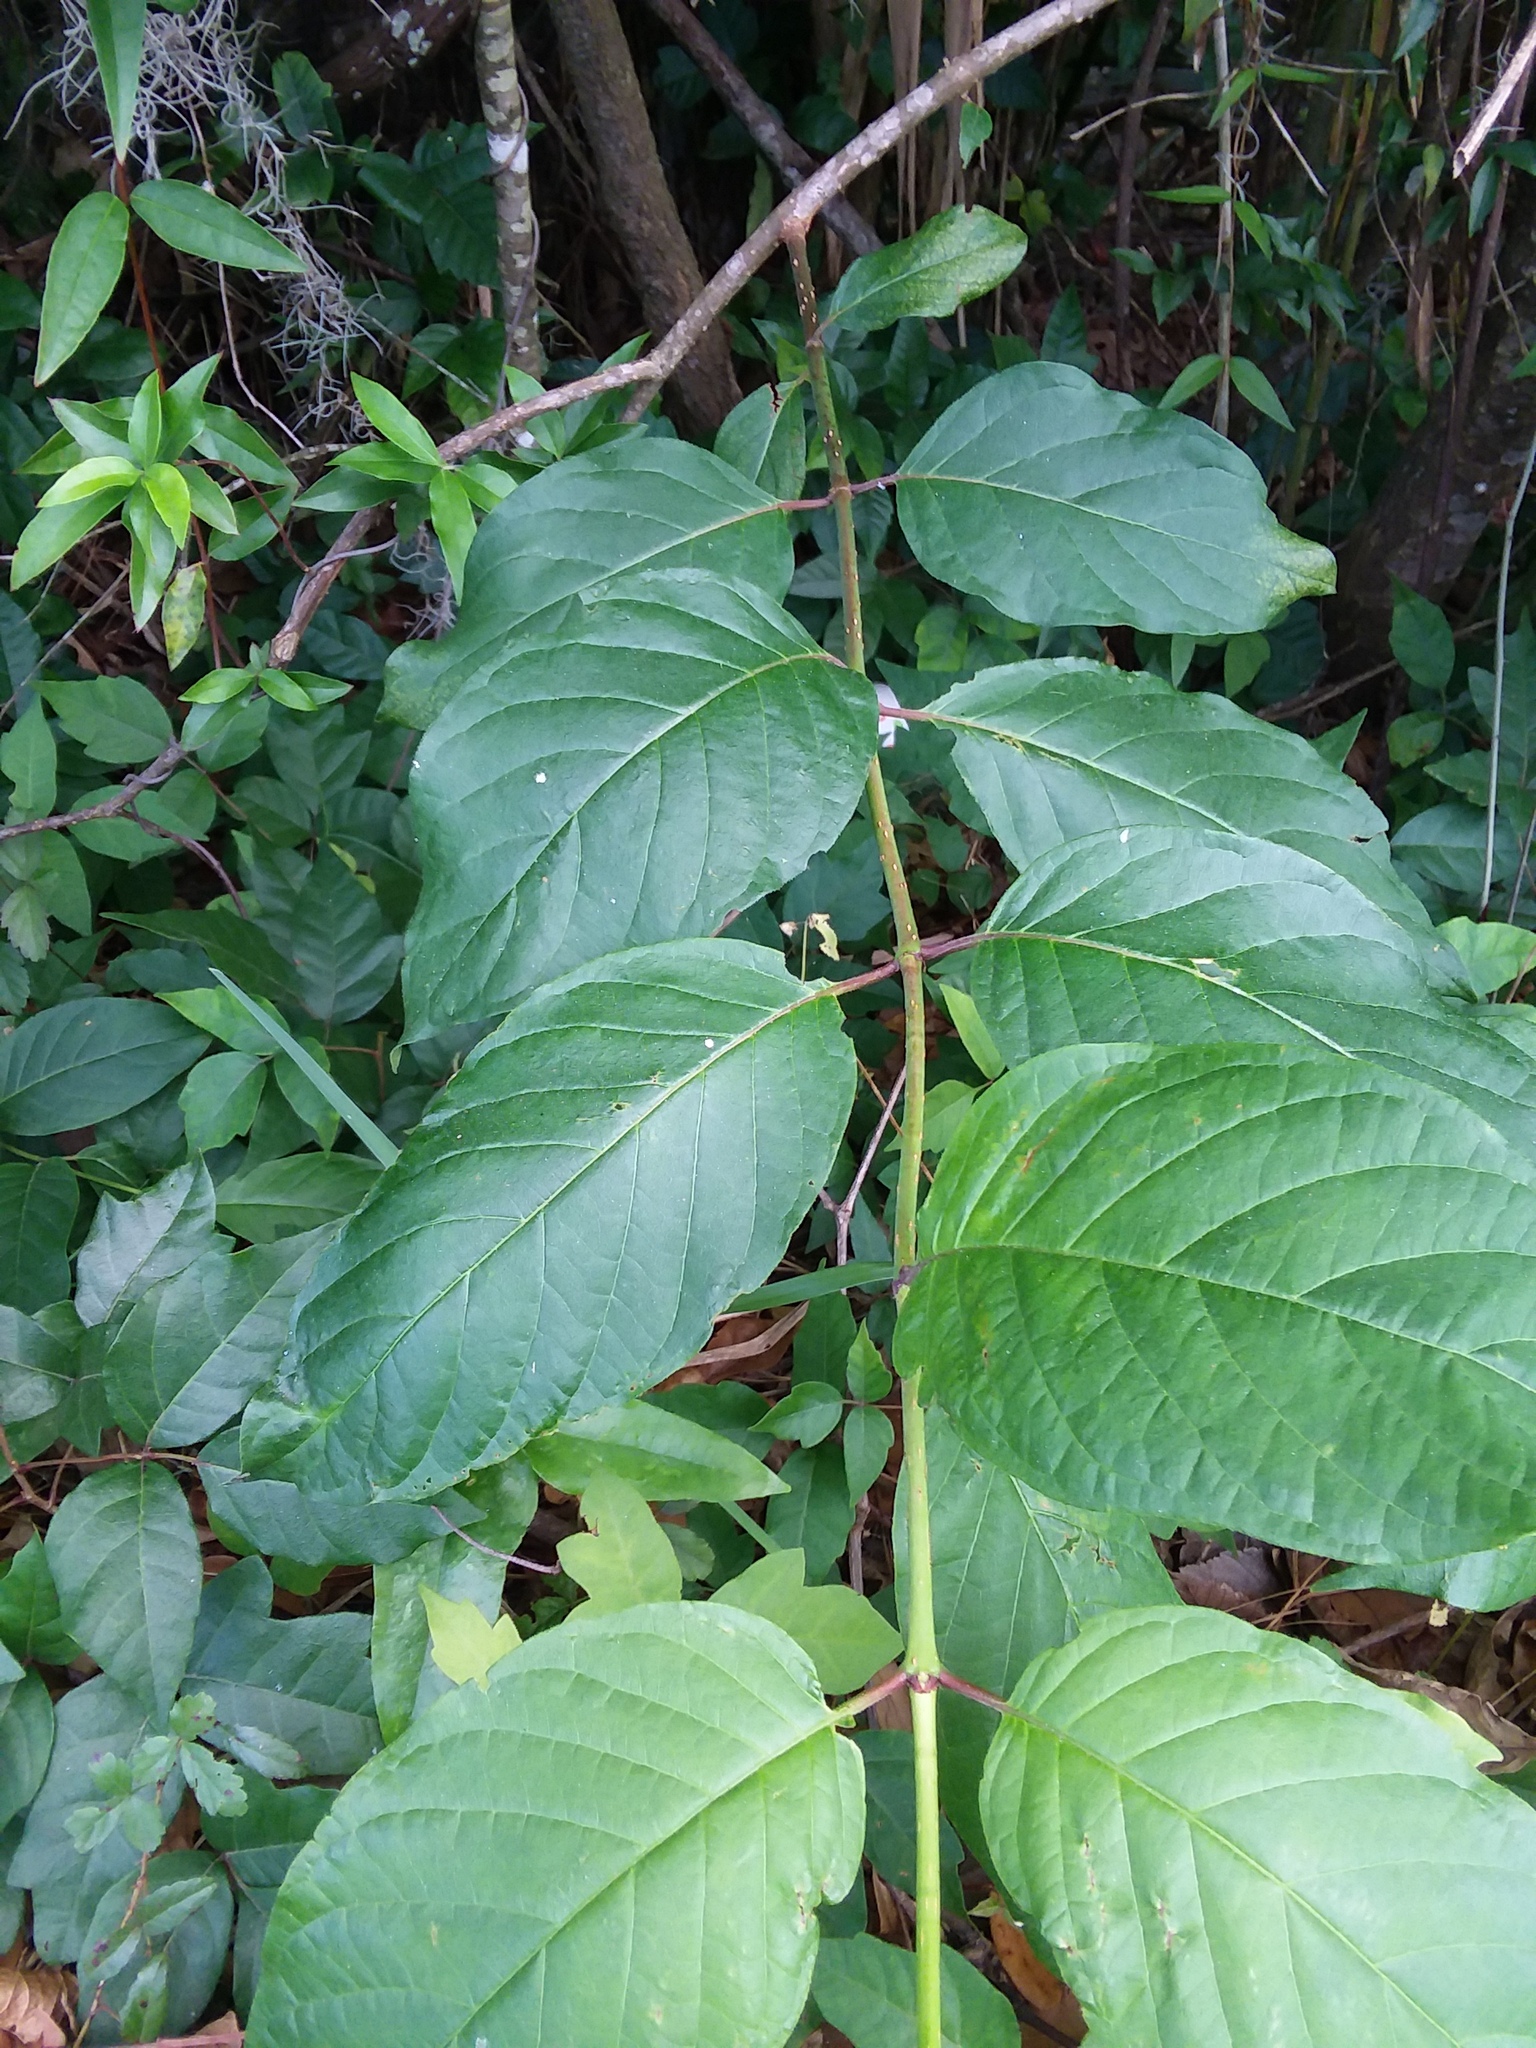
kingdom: Plantae
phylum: Tracheophyta
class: Magnoliopsida
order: Gentianales
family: Rubiaceae
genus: Cephalanthus
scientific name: Cephalanthus occidentalis
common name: Button-willow
